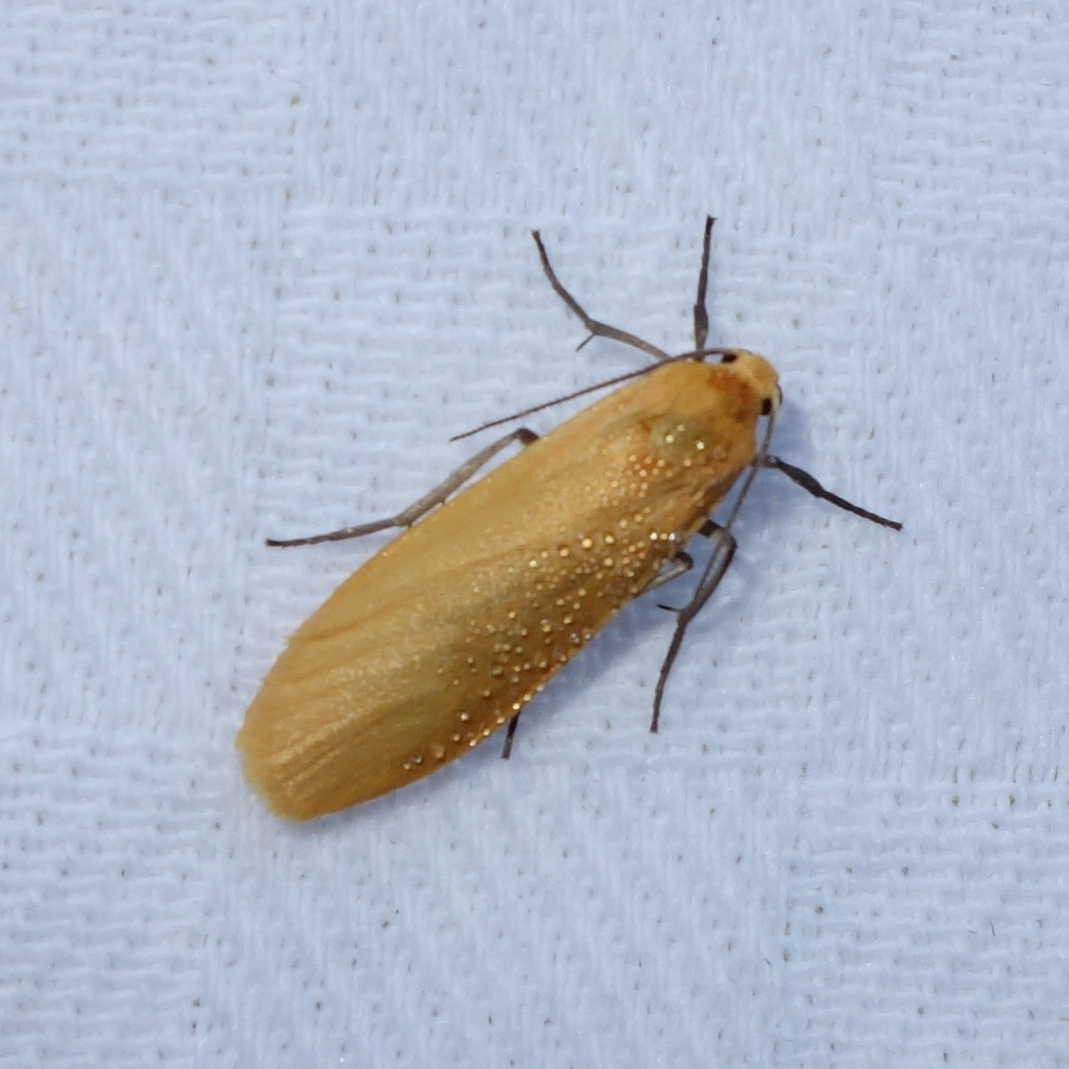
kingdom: Animalia
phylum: Arthropoda
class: Insecta
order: Lepidoptera
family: Erebidae
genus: Wittia
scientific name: Wittia sororcula
